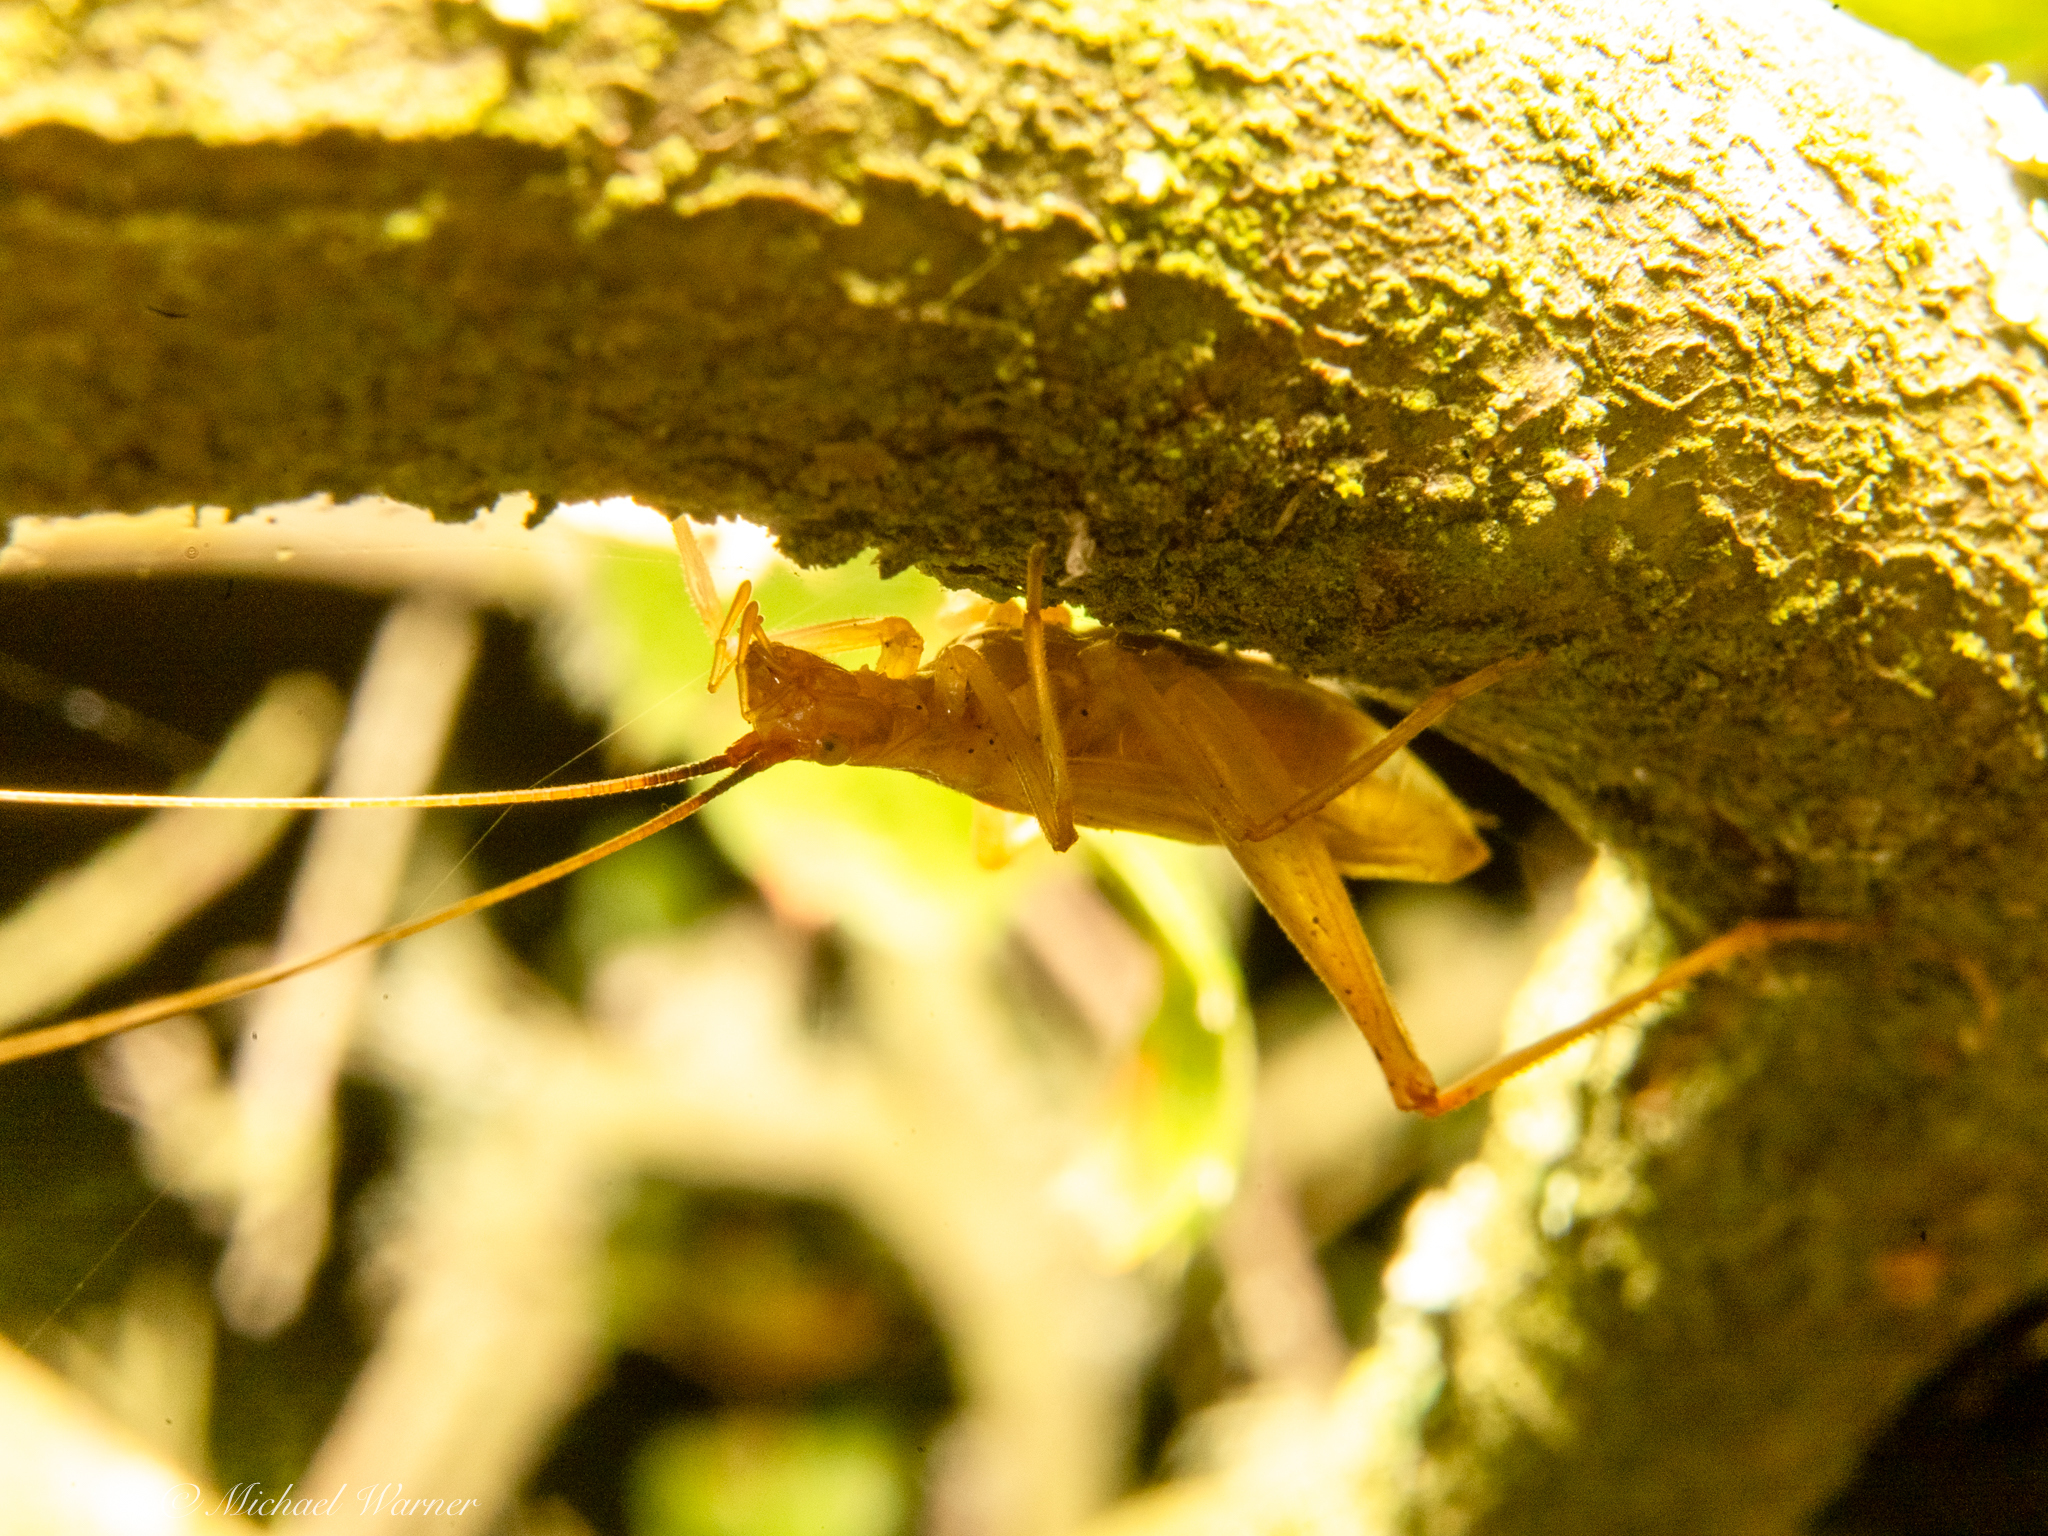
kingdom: Animalia
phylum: Arthropoda
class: Insecta
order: Orthoptera
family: Gryllidae
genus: Oecanthus
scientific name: Oecanthus californicus
